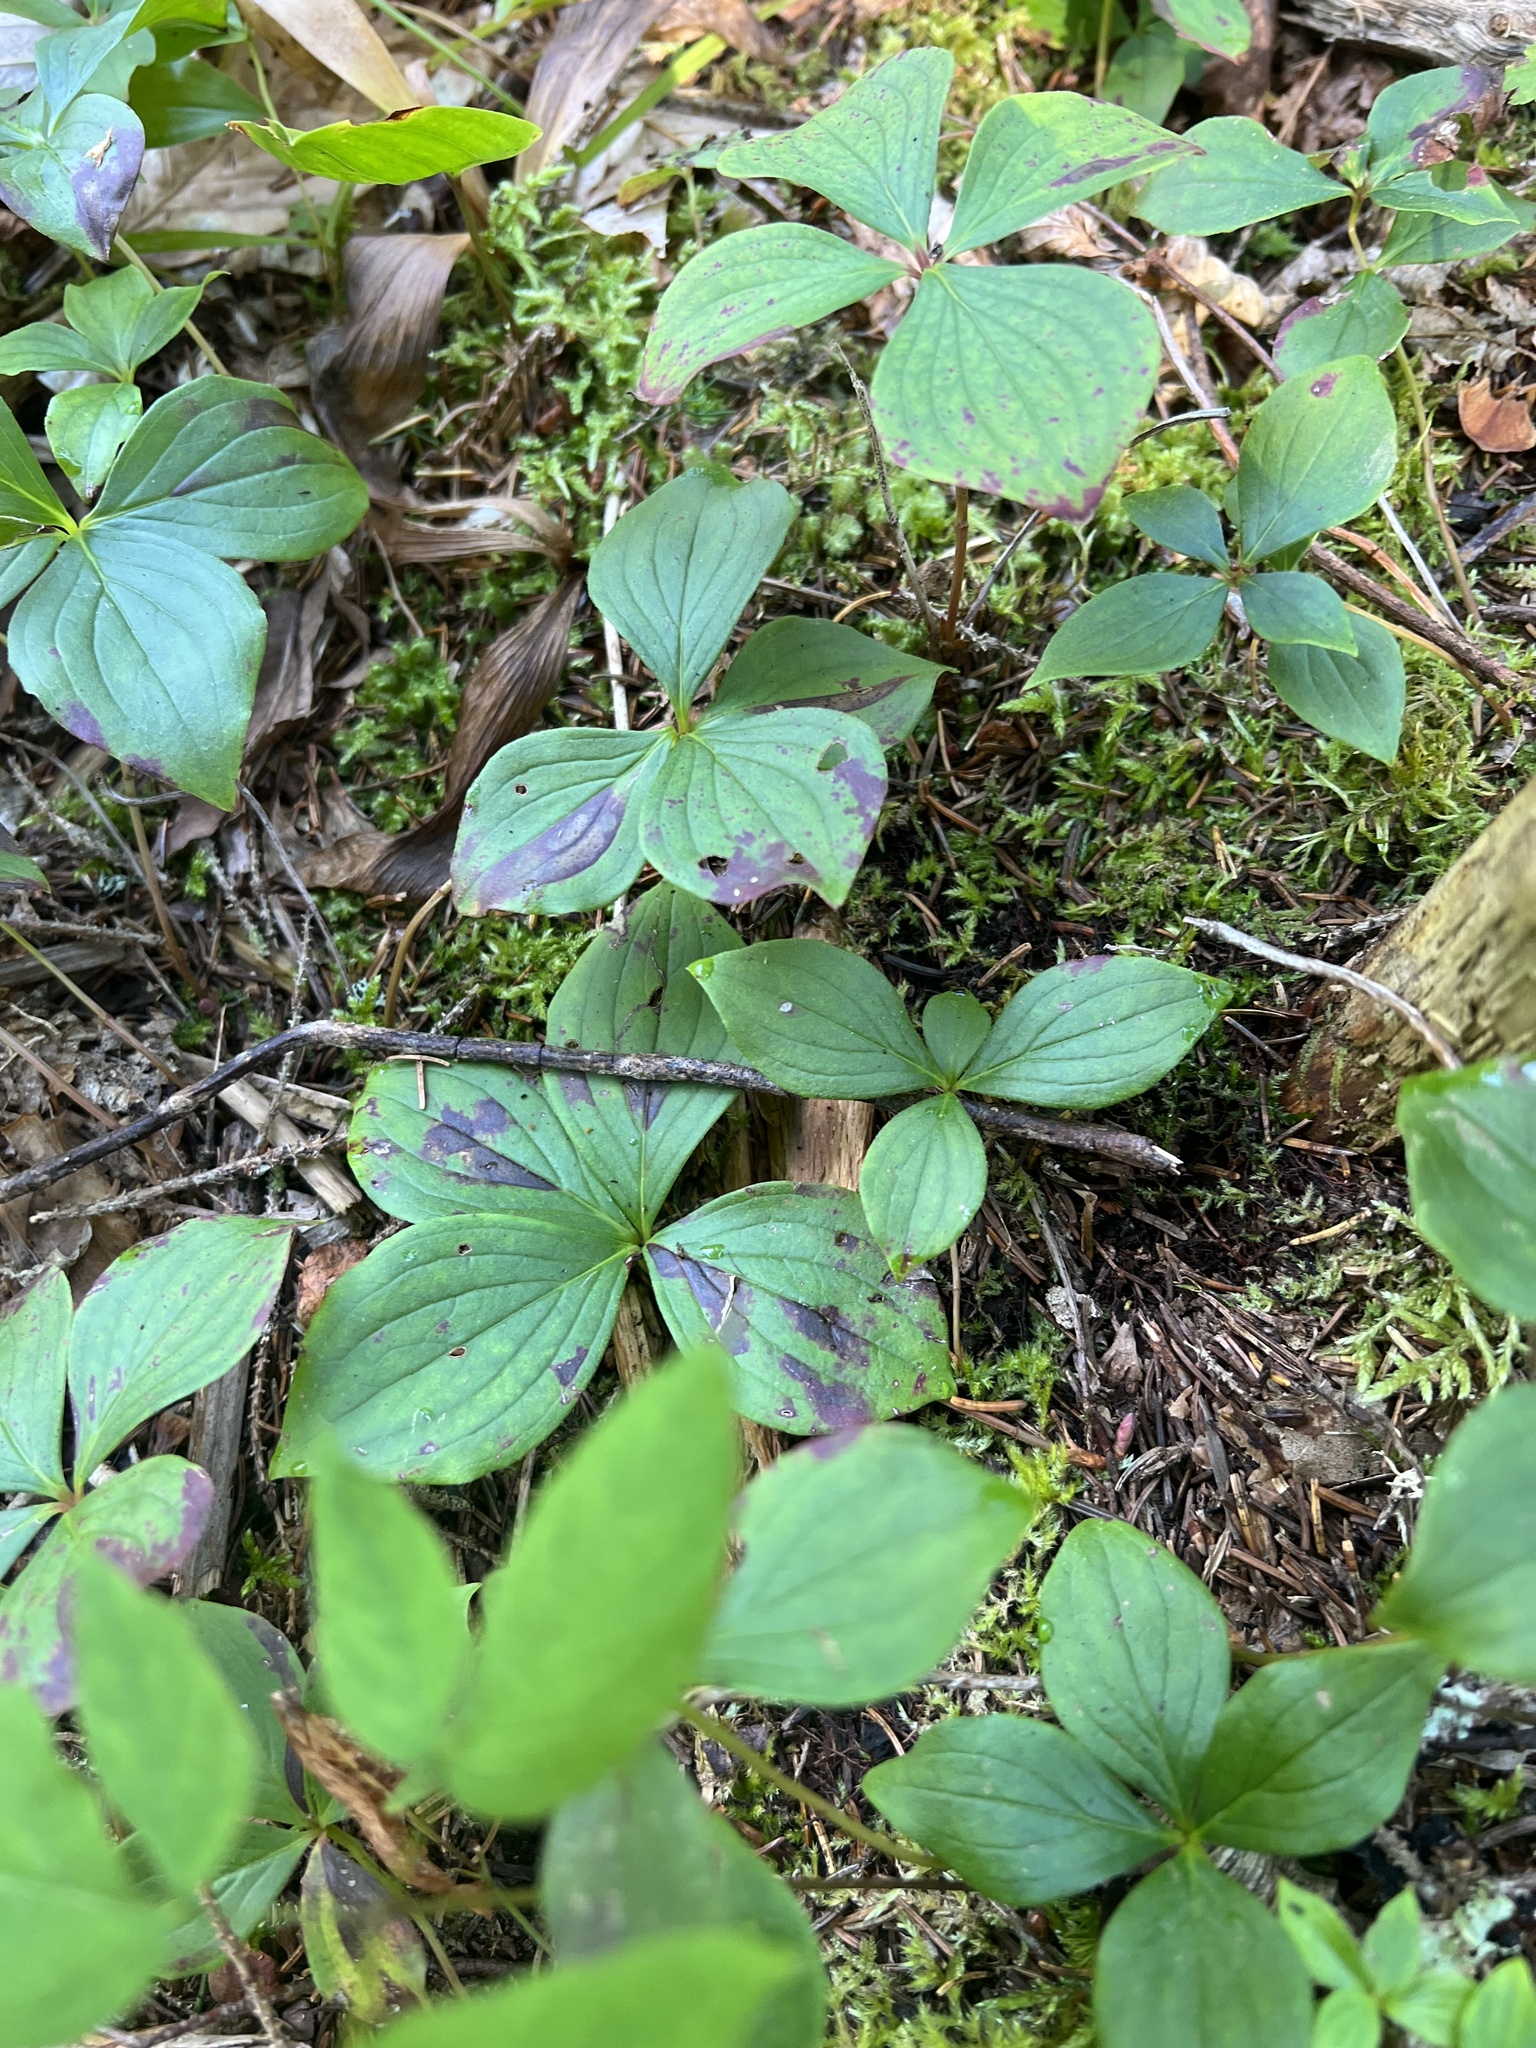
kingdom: Plantae
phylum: Tracheophyta
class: Magnoliopsida
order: Cornales
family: Cornaceae
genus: Cornus
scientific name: Cornus canadensis
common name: Creeping dogwood
